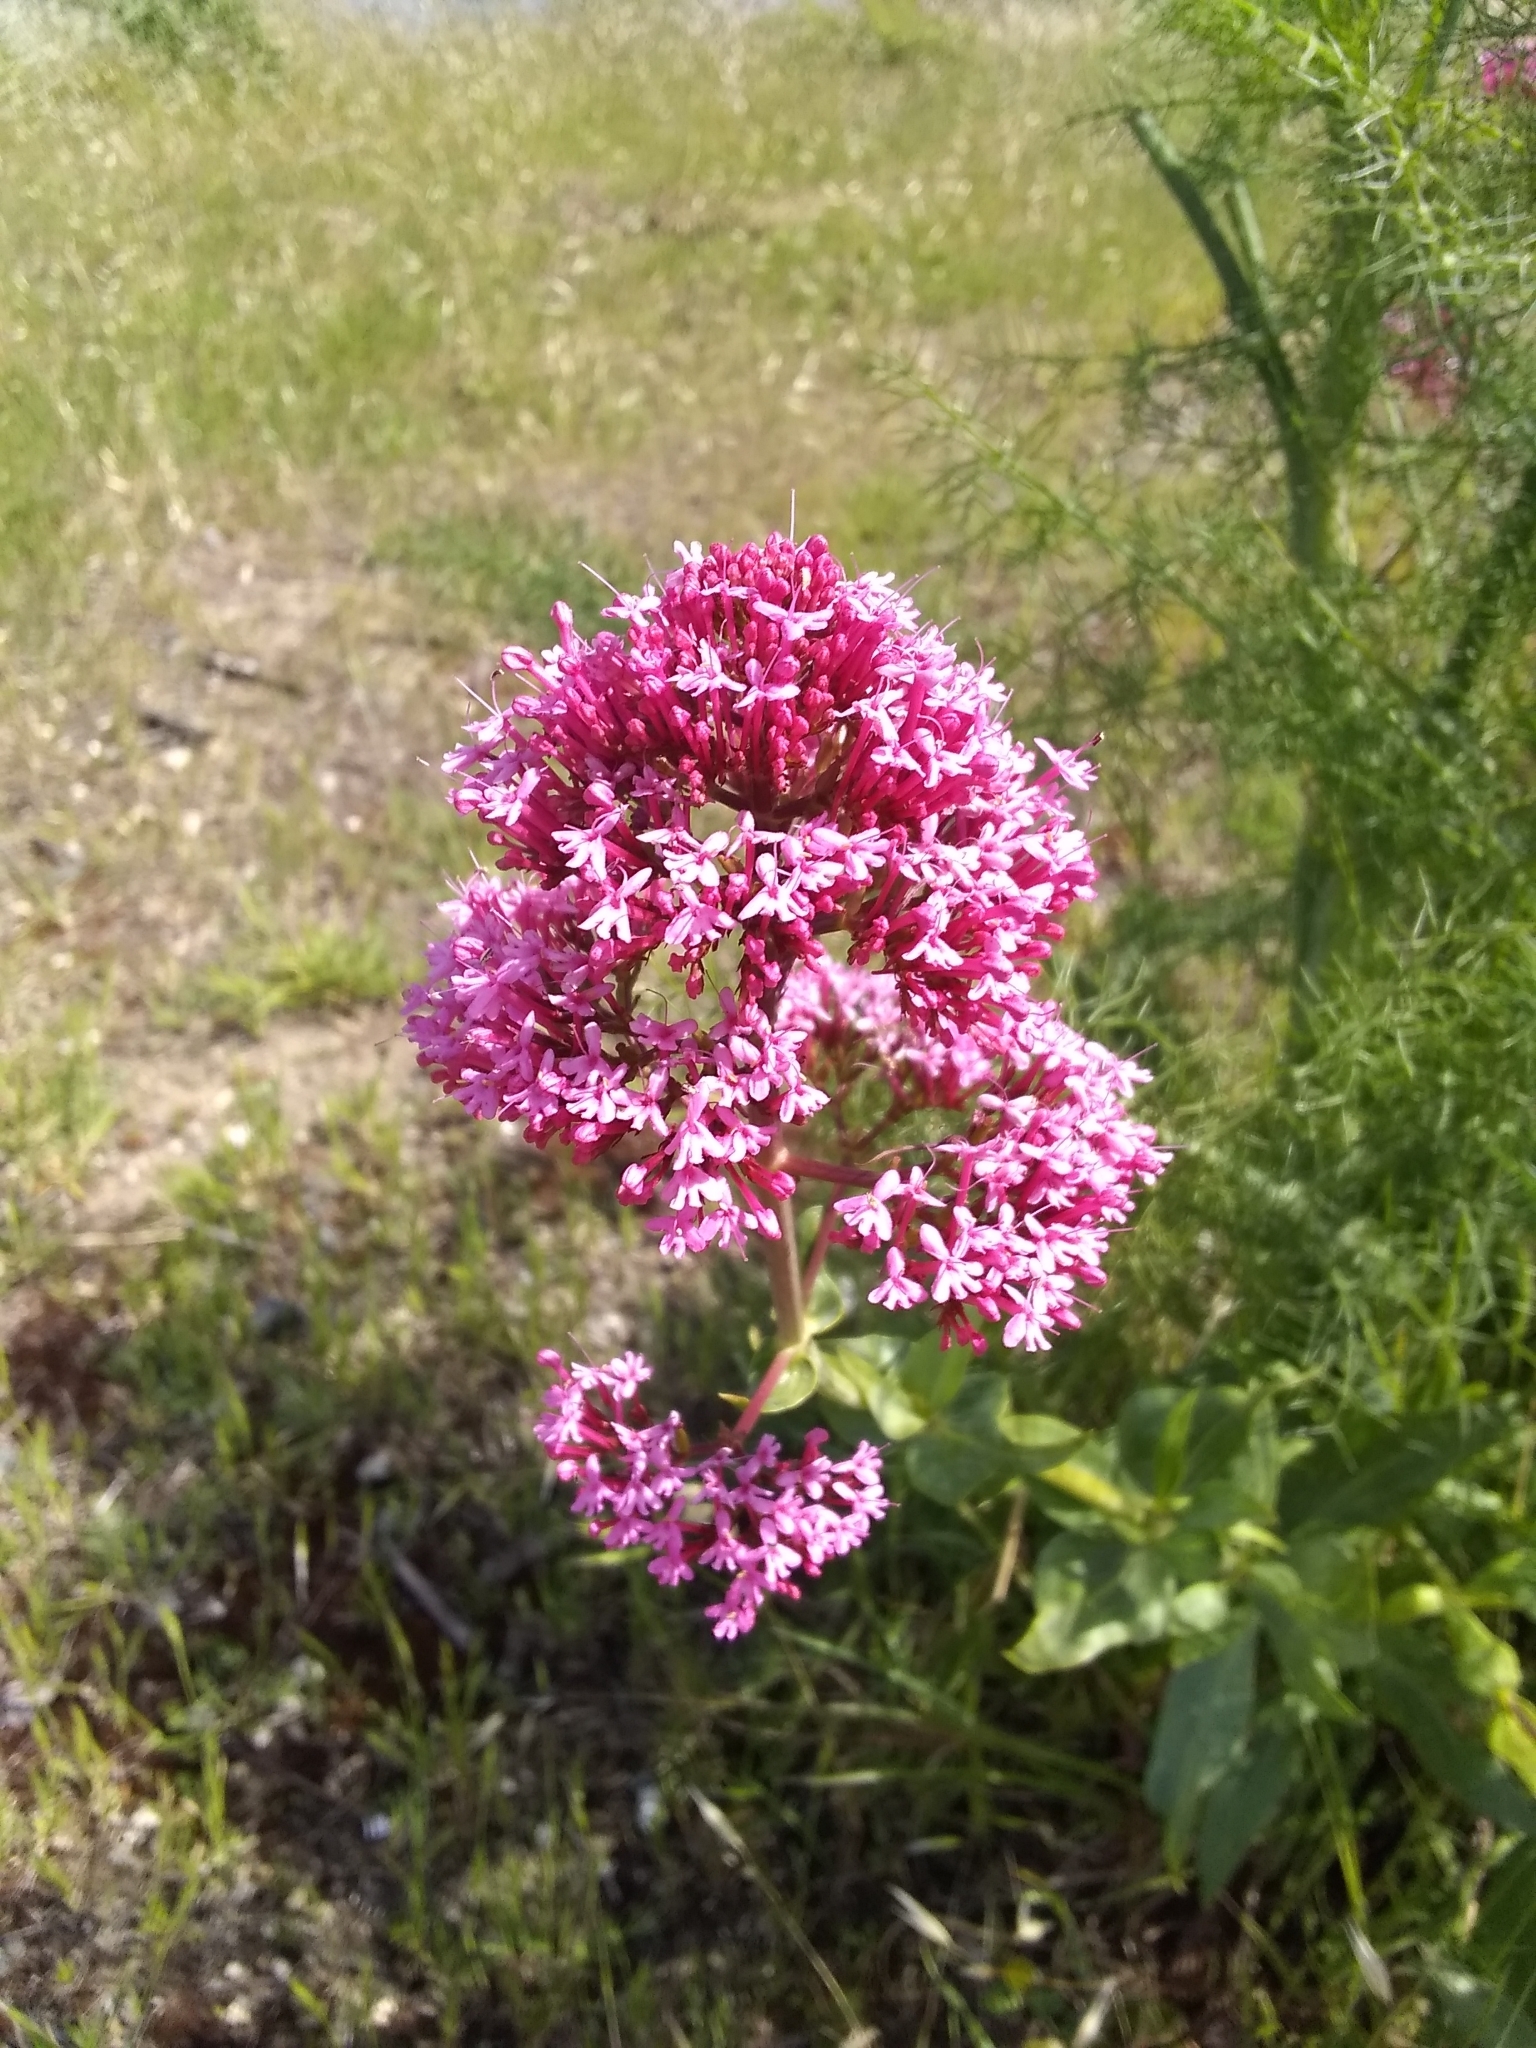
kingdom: Plantae
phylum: Tracheophyta
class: Magnoliopsida
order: Dipsacales
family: Caprifoliaceae
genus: Centranthus
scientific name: Centranthus ruber
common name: Red valerian
